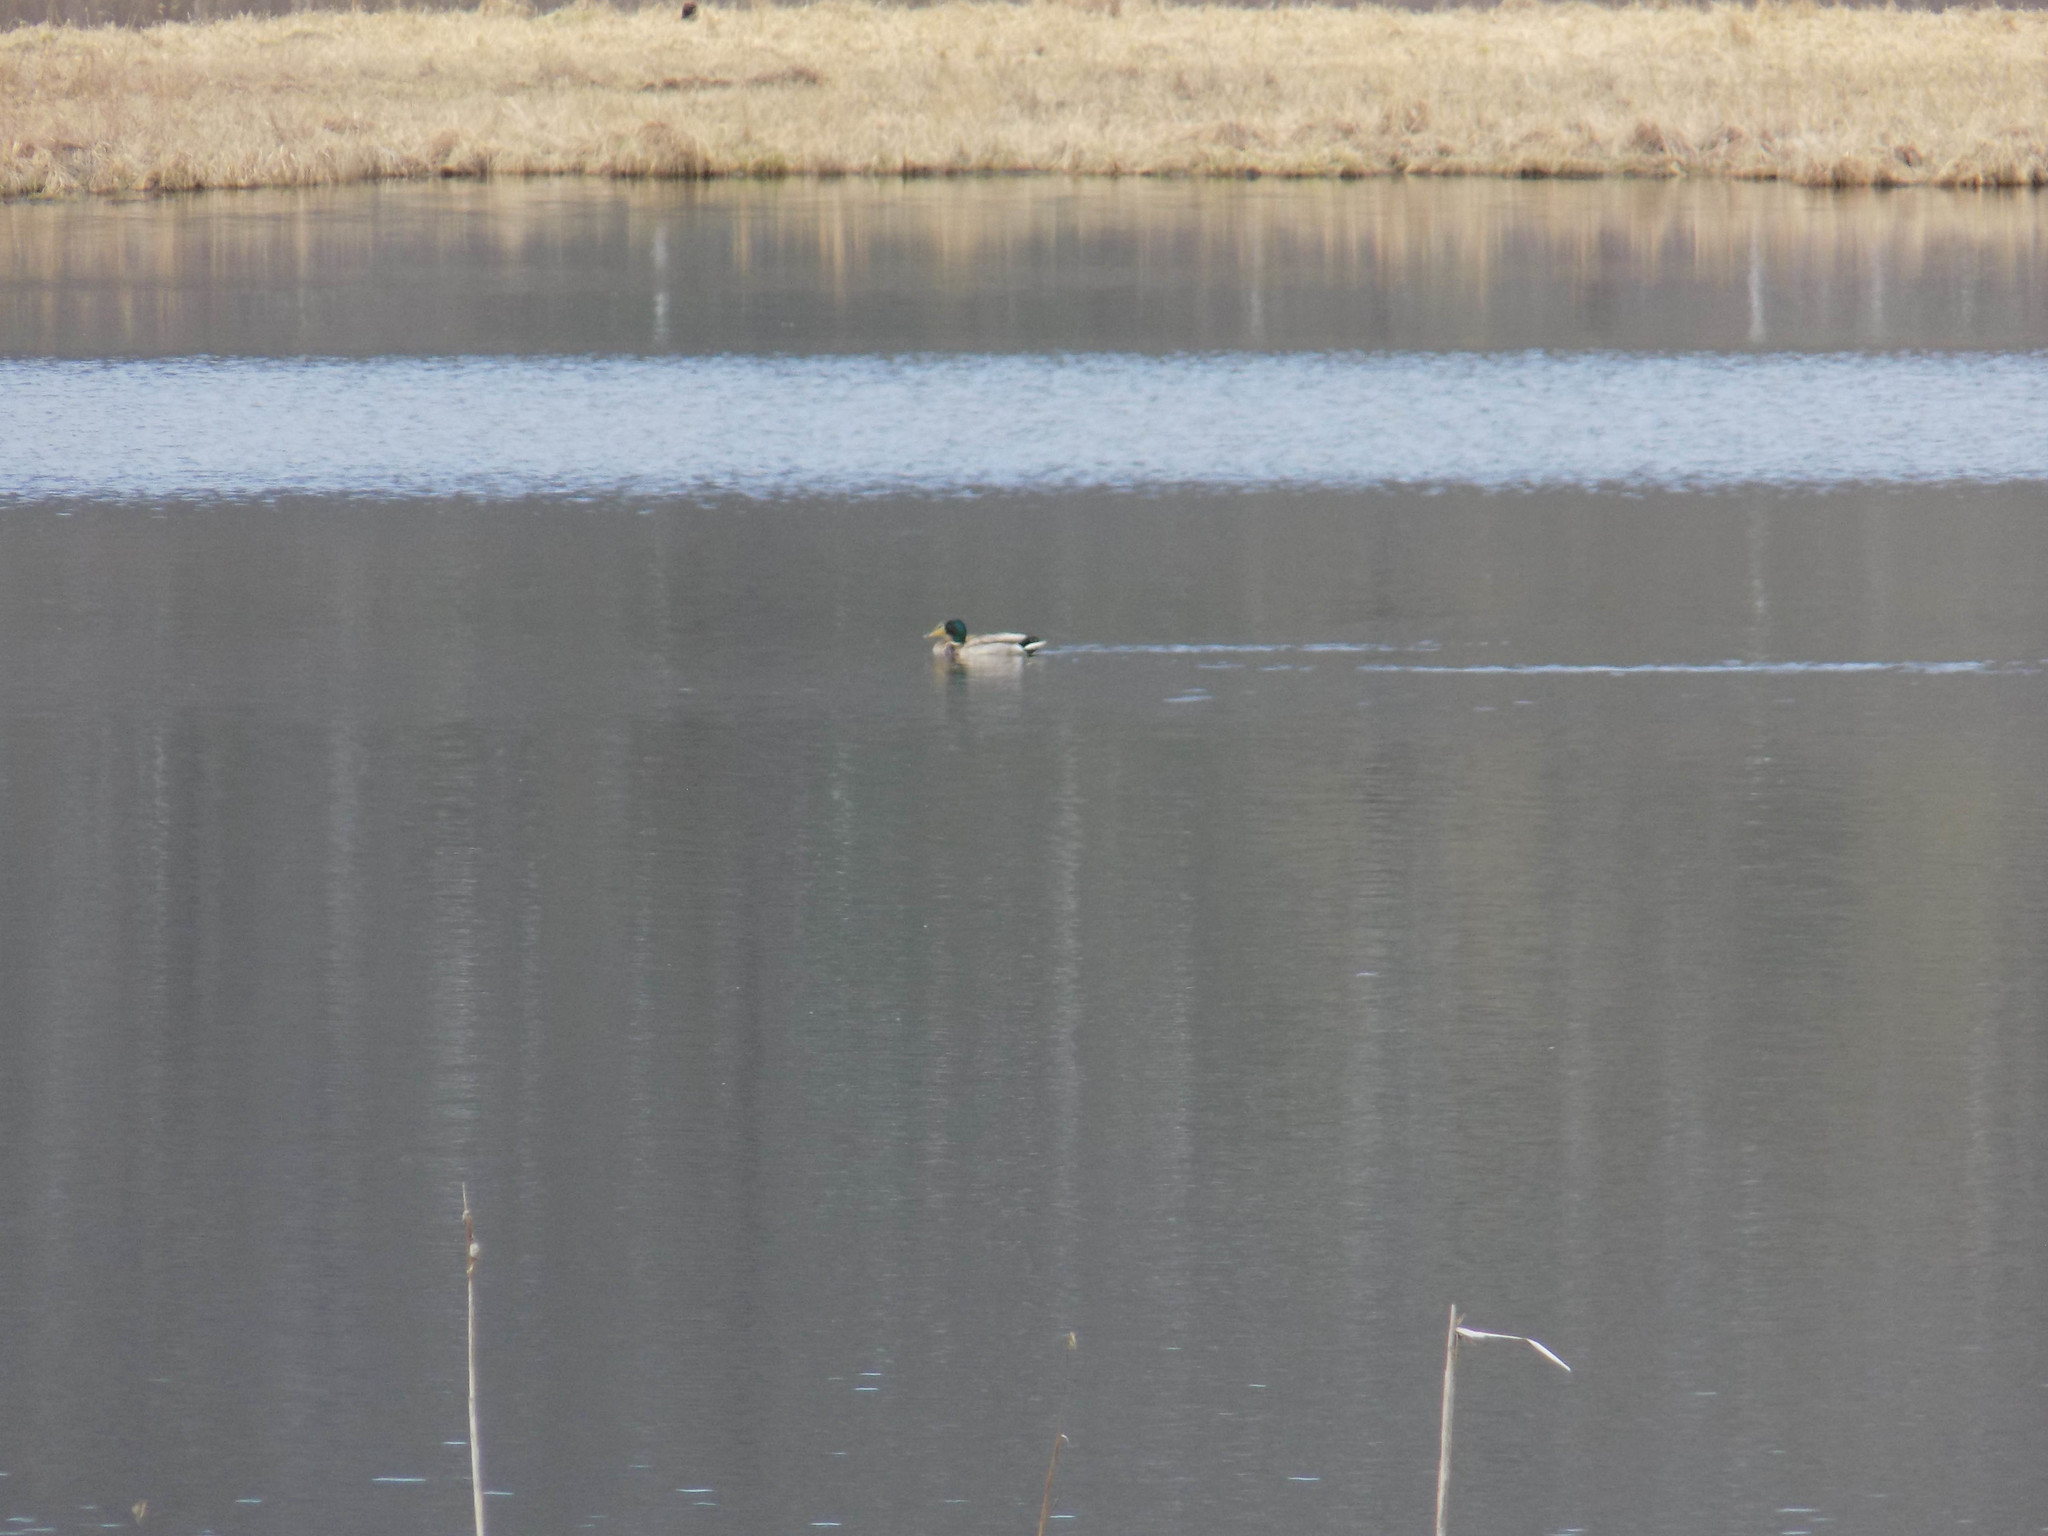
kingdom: Animalia
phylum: Chordata
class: Aves
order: Anseriformes
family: Anatidae
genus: Anas
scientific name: Anas platyrhynchos
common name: Mallard
